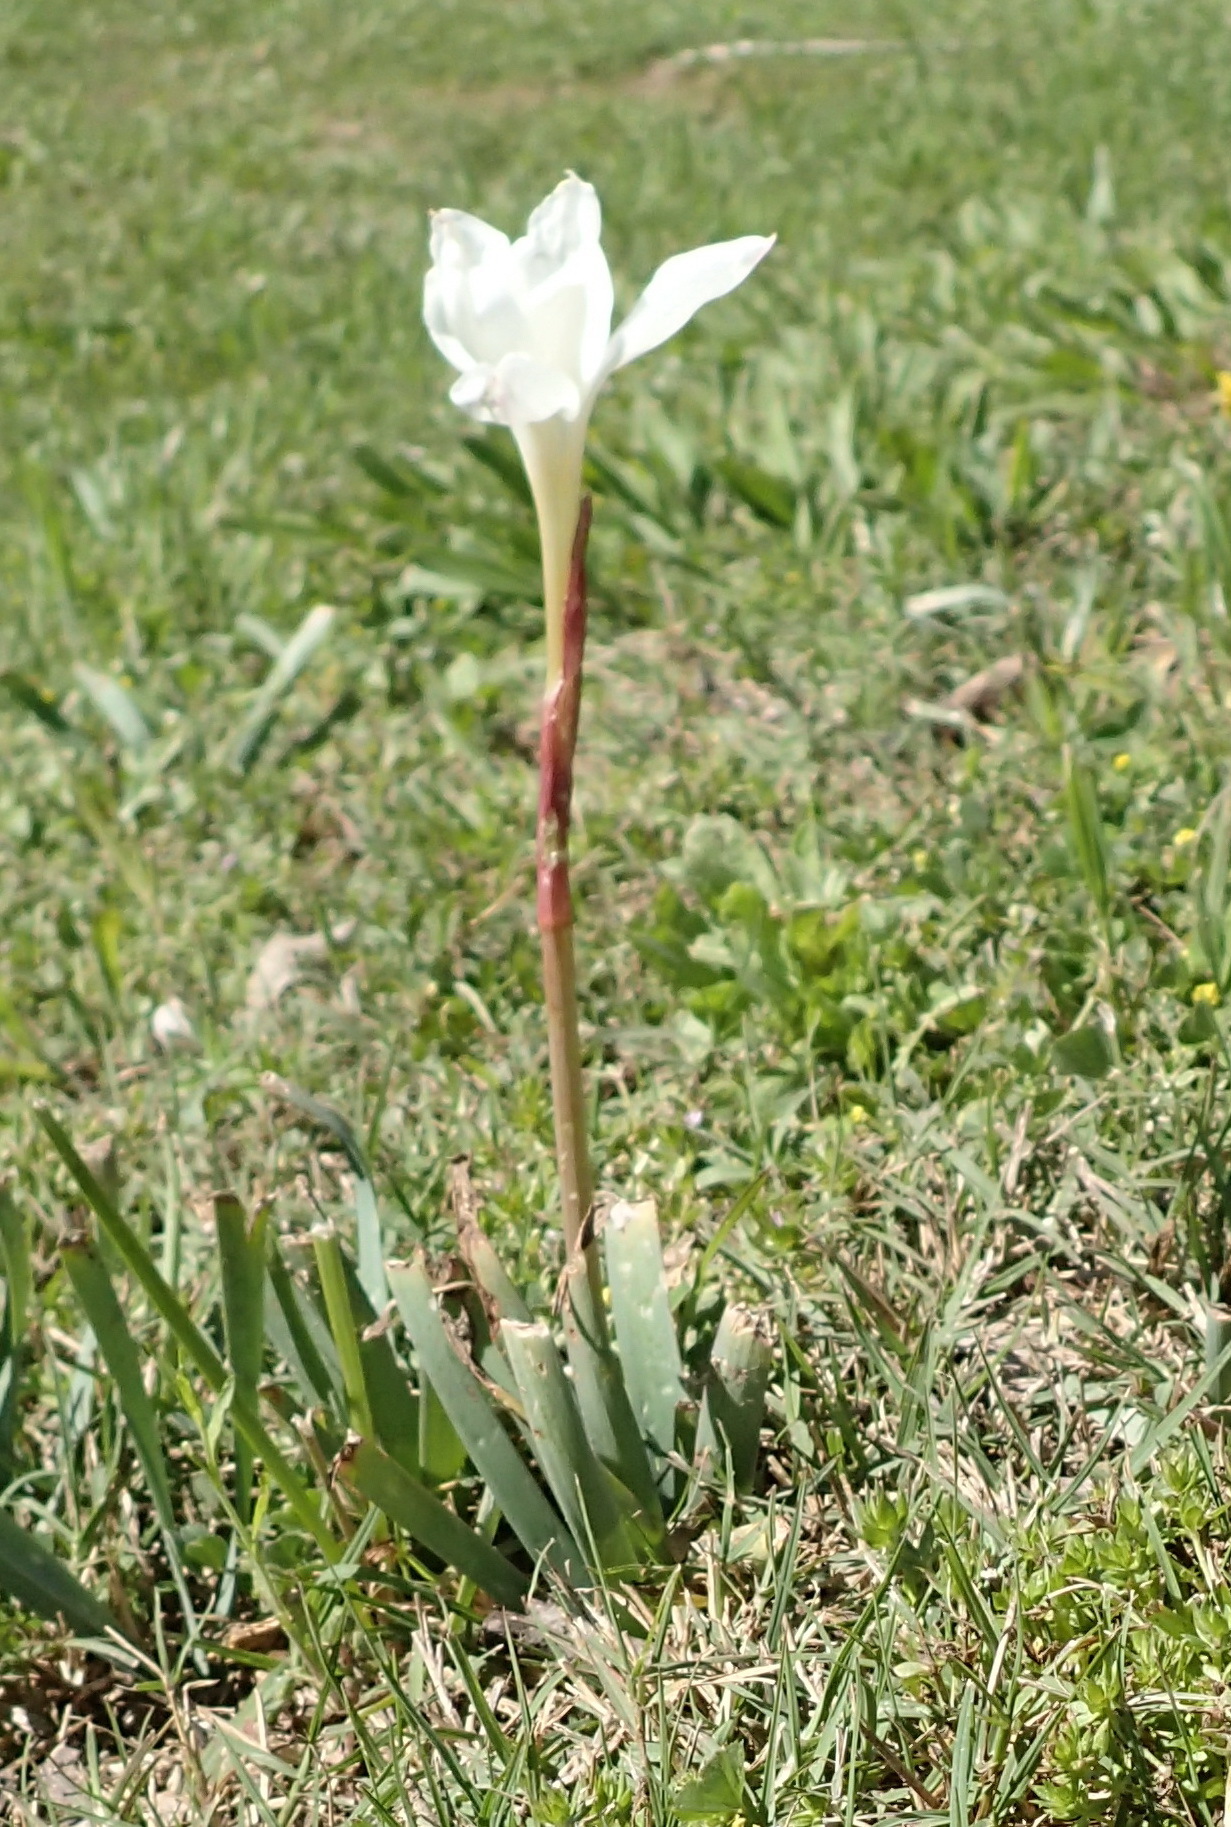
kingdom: Plantae
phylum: Tracheophyta
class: Liliopsida
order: Asparagales
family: Amaryllidaceae
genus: Zephyranthes
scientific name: Zephyranthes drummondii
